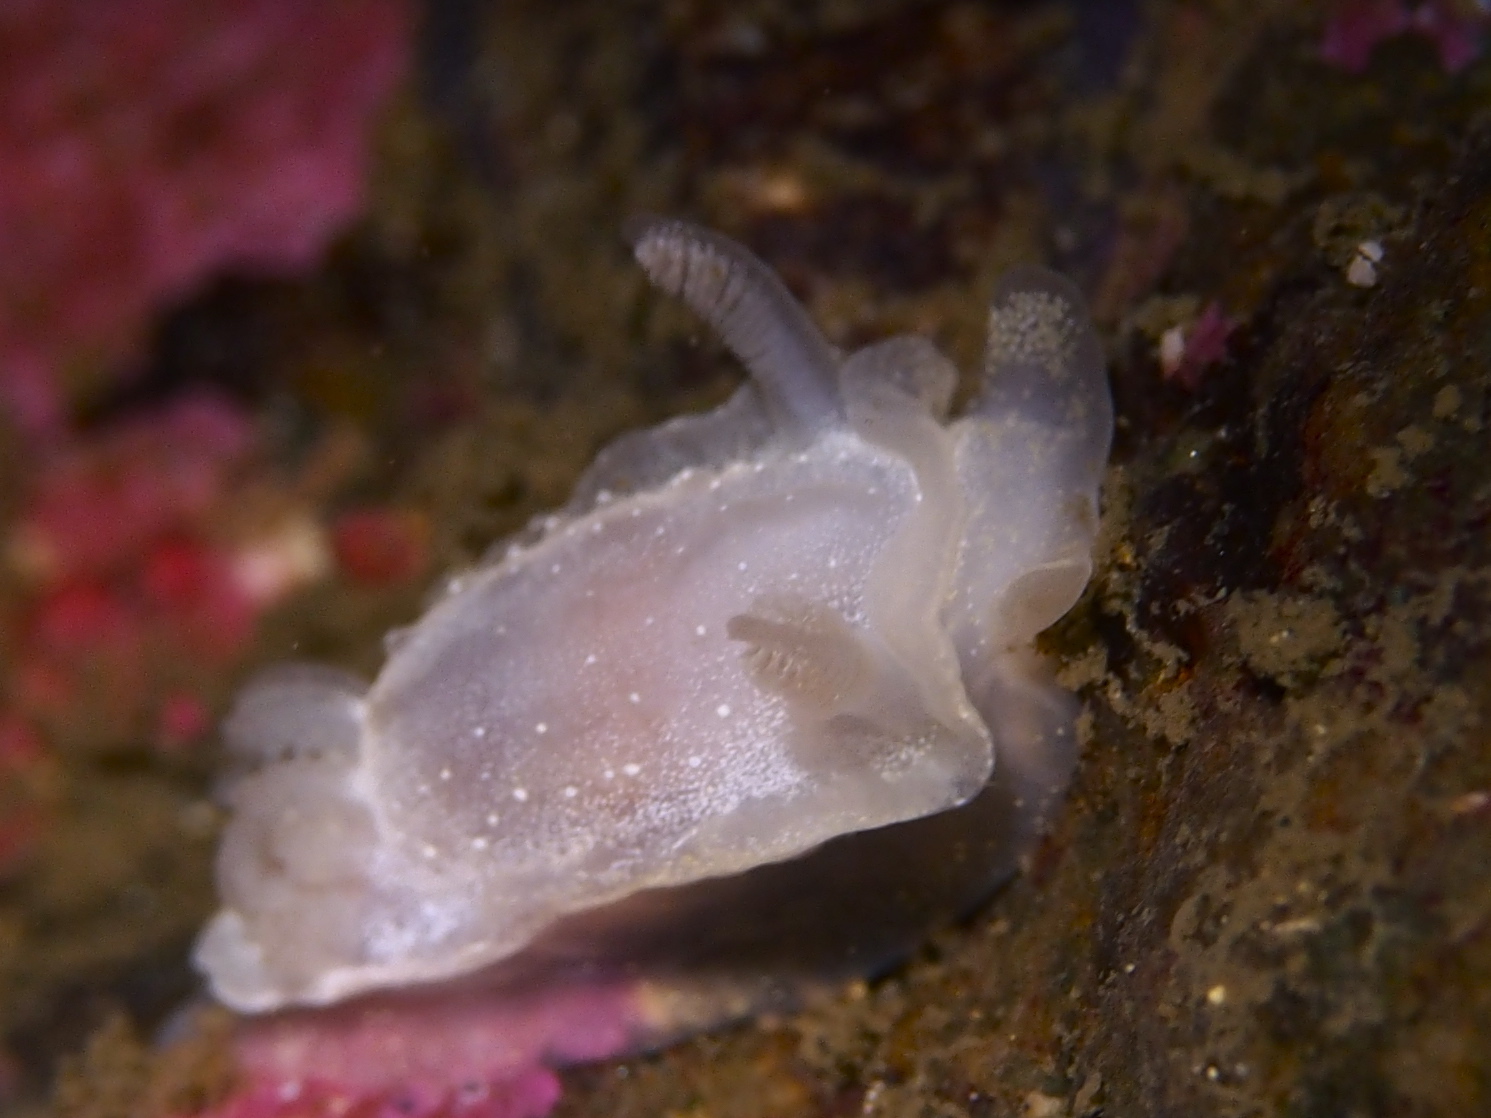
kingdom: Animalia
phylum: Mollusca
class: Gastropoda
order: Nudibranchia
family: Goniodorididae
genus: Okenia
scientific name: Okenia
